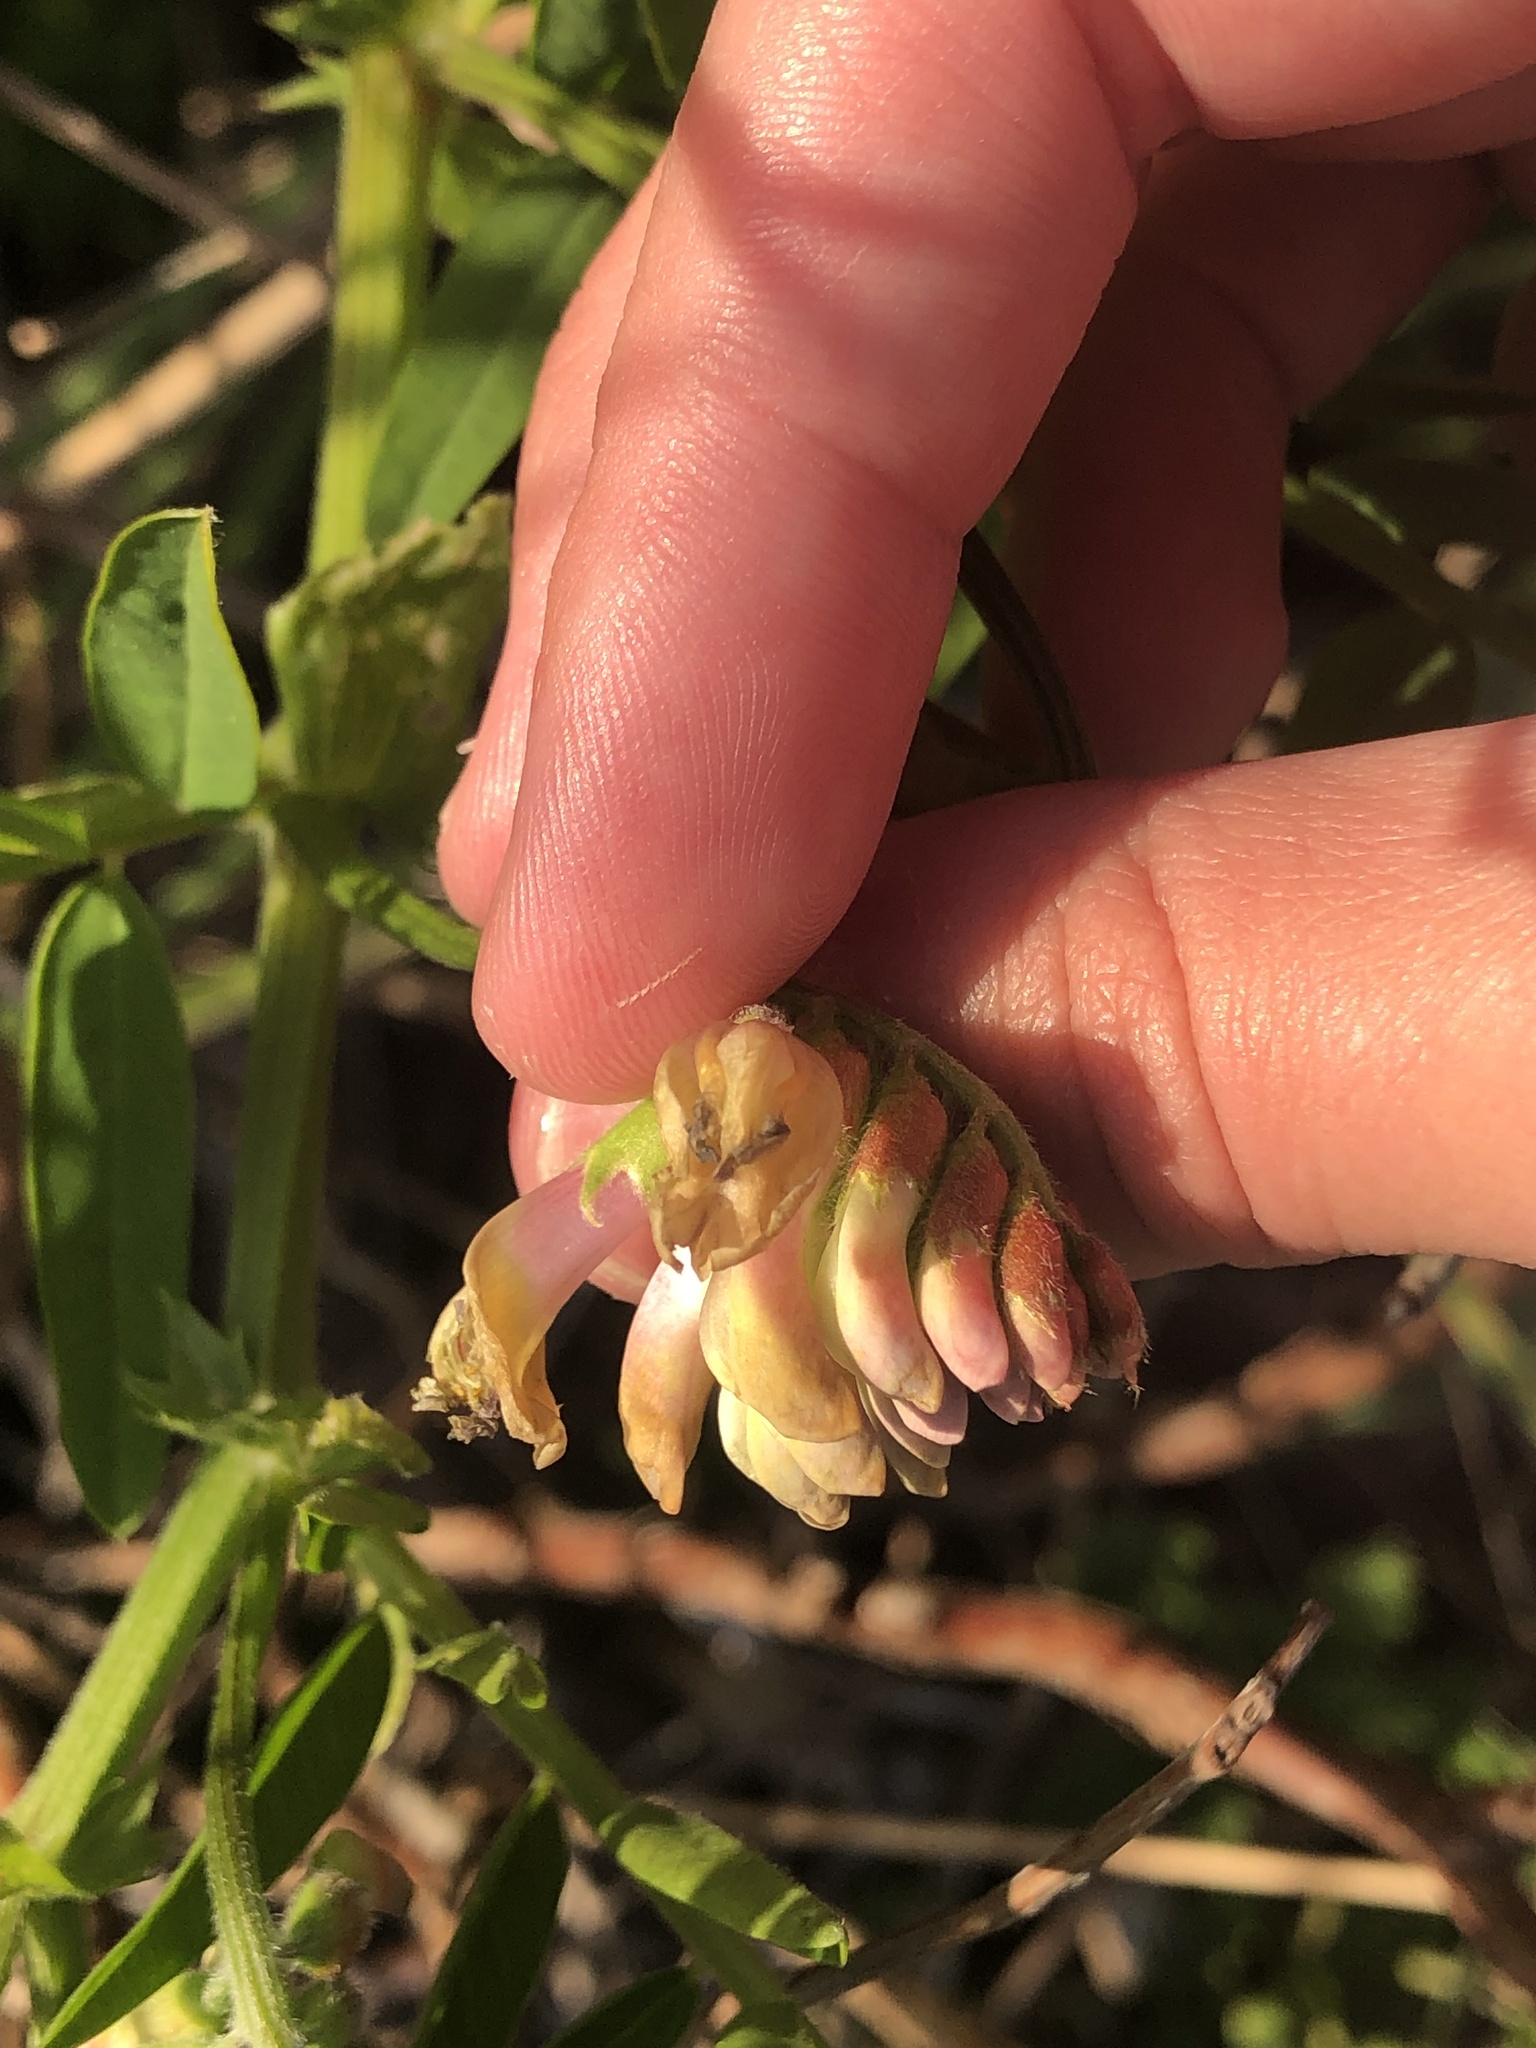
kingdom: Plantae
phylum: Tracheophyta
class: Magnoliopsida
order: Fabales
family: Fabaceae
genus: Vicia
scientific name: Vicia
